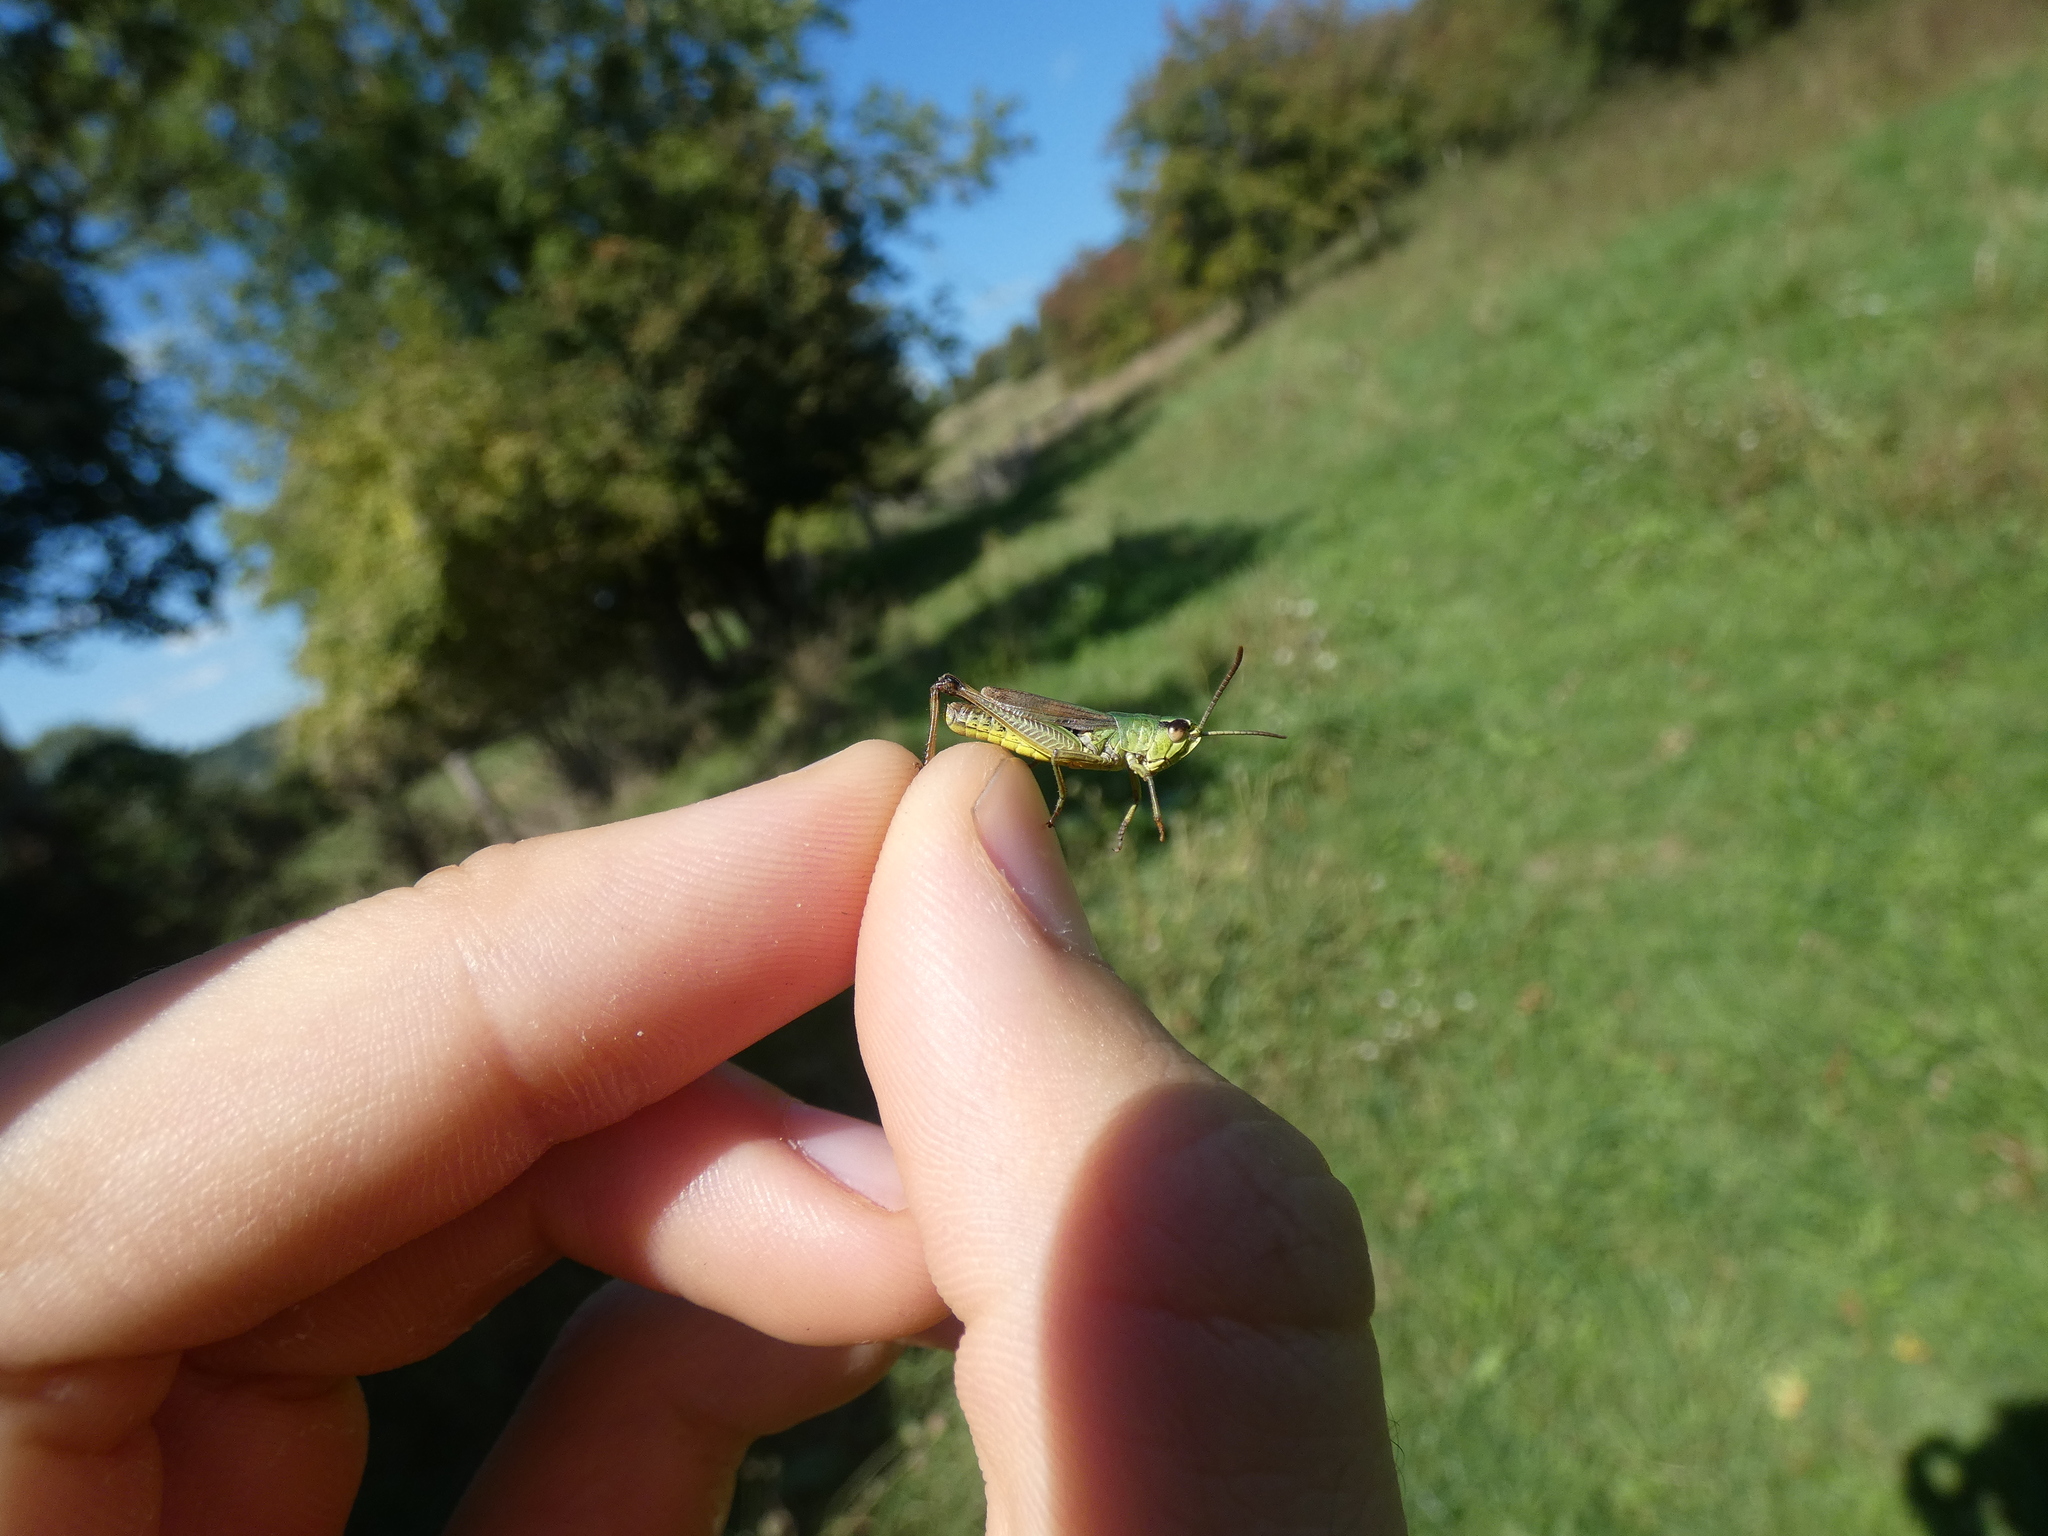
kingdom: Animalia
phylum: Arthropoda
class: Insecta
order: Orthoptera
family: Acrididae
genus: Pseudochorthippus
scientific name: Pseudochorthippus parallelus
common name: Meadow grasshopper
